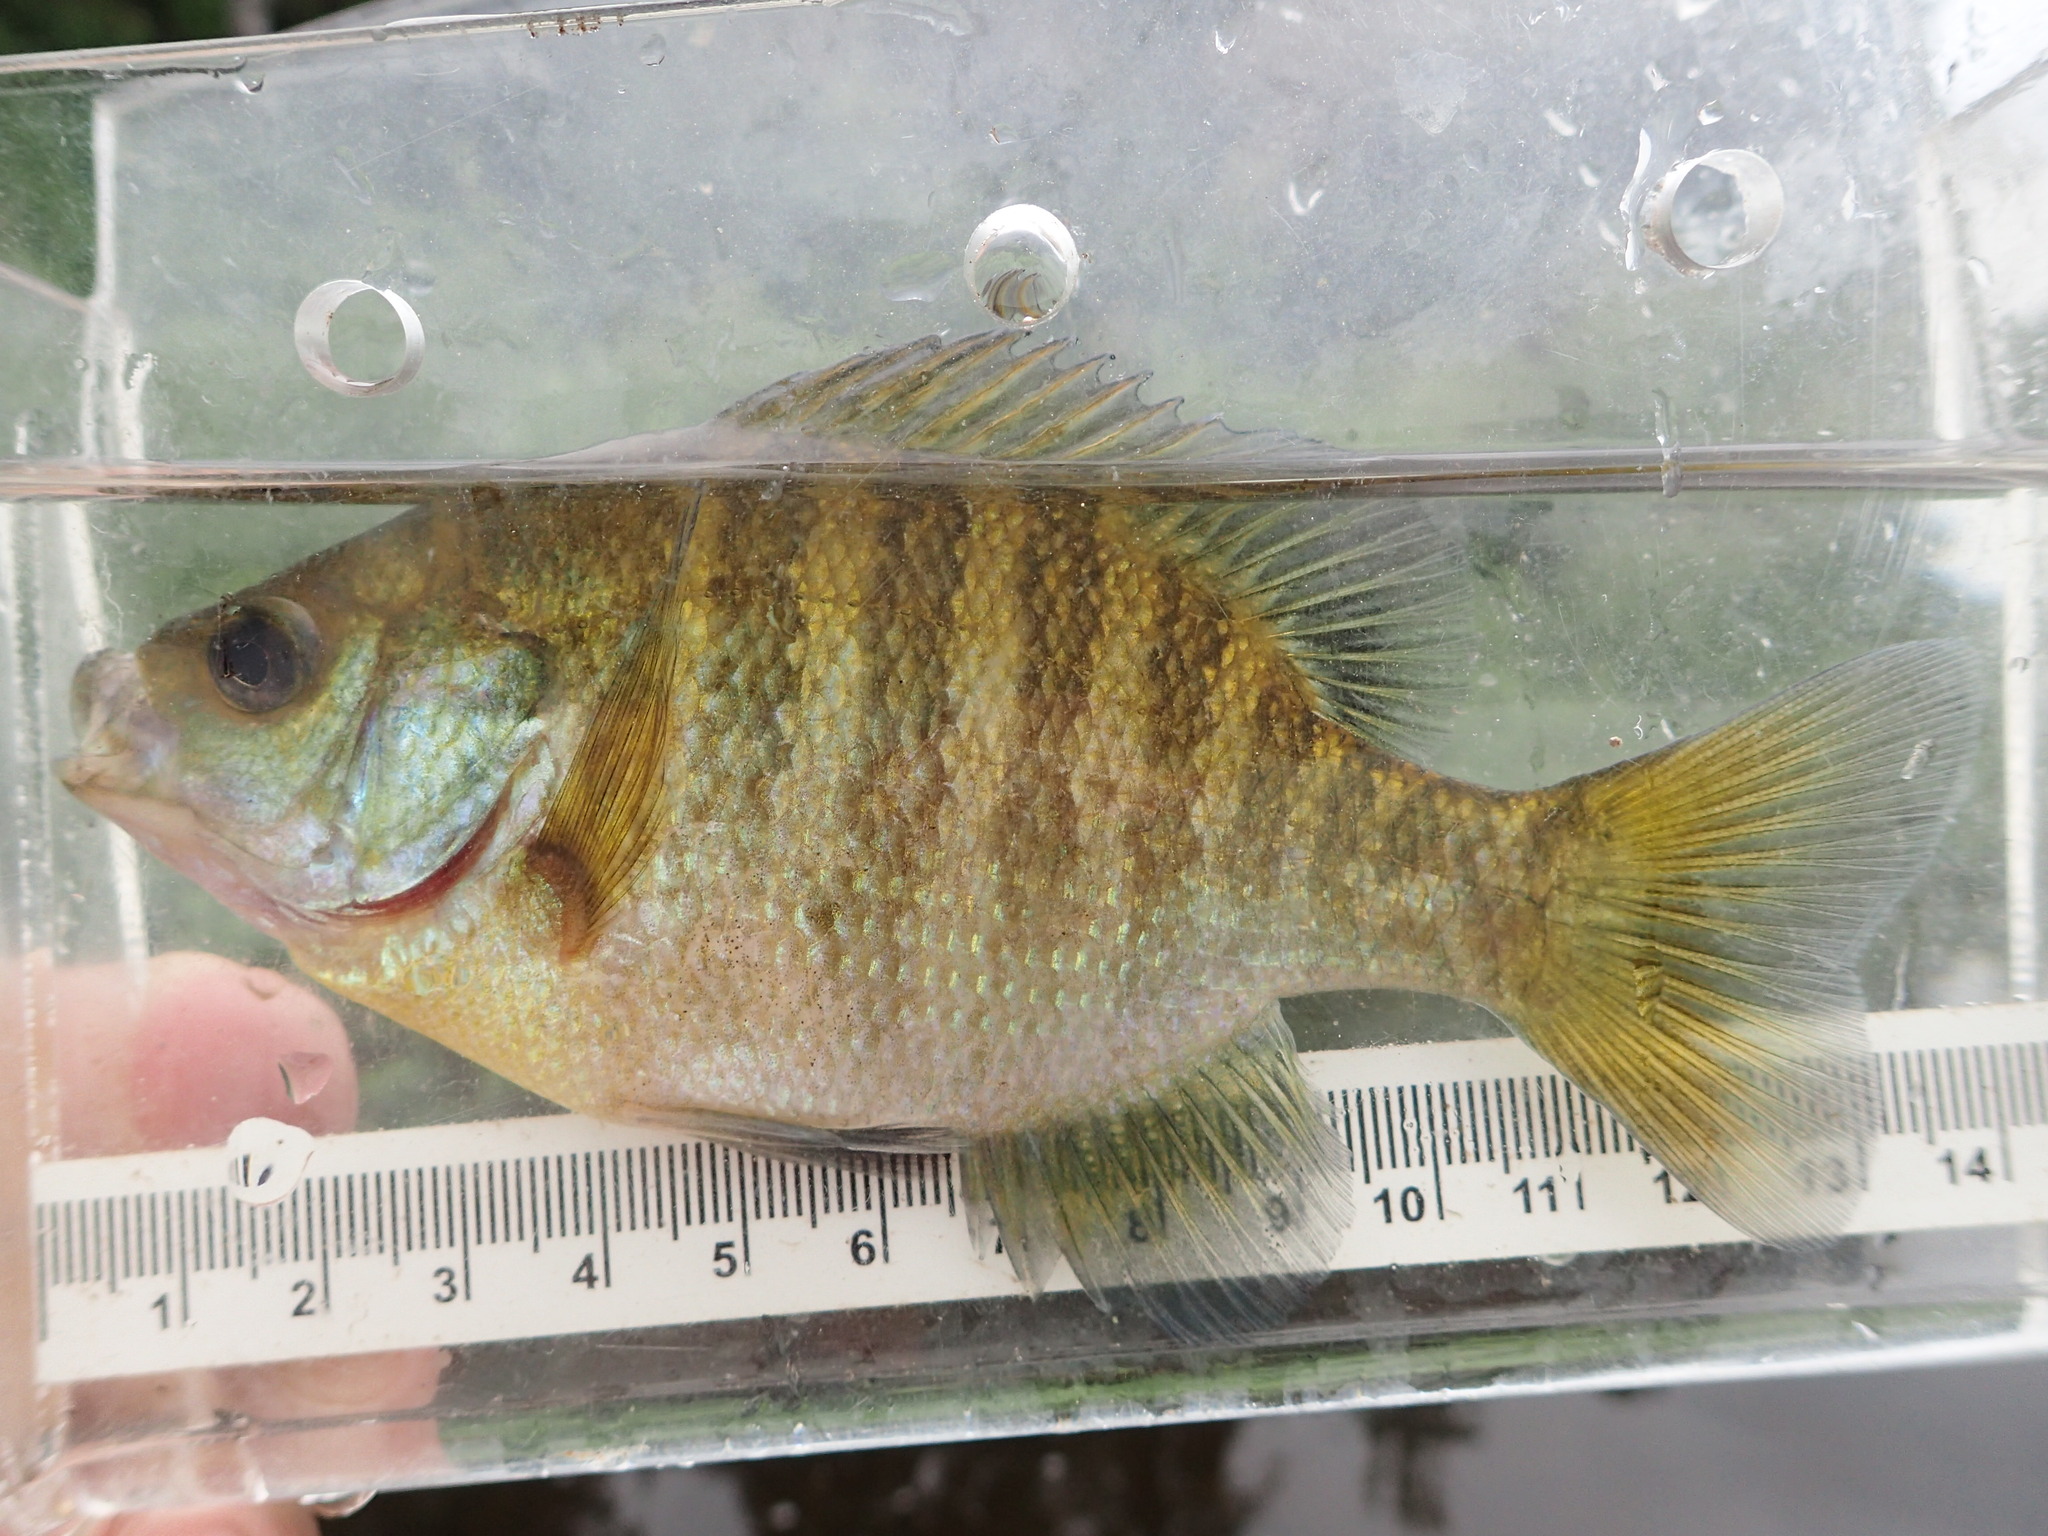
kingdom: Animalia
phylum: Chordata
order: Perciformes
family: Centrarchidae
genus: Lepomis
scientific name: Lepomis macrochirus
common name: Bluegill
